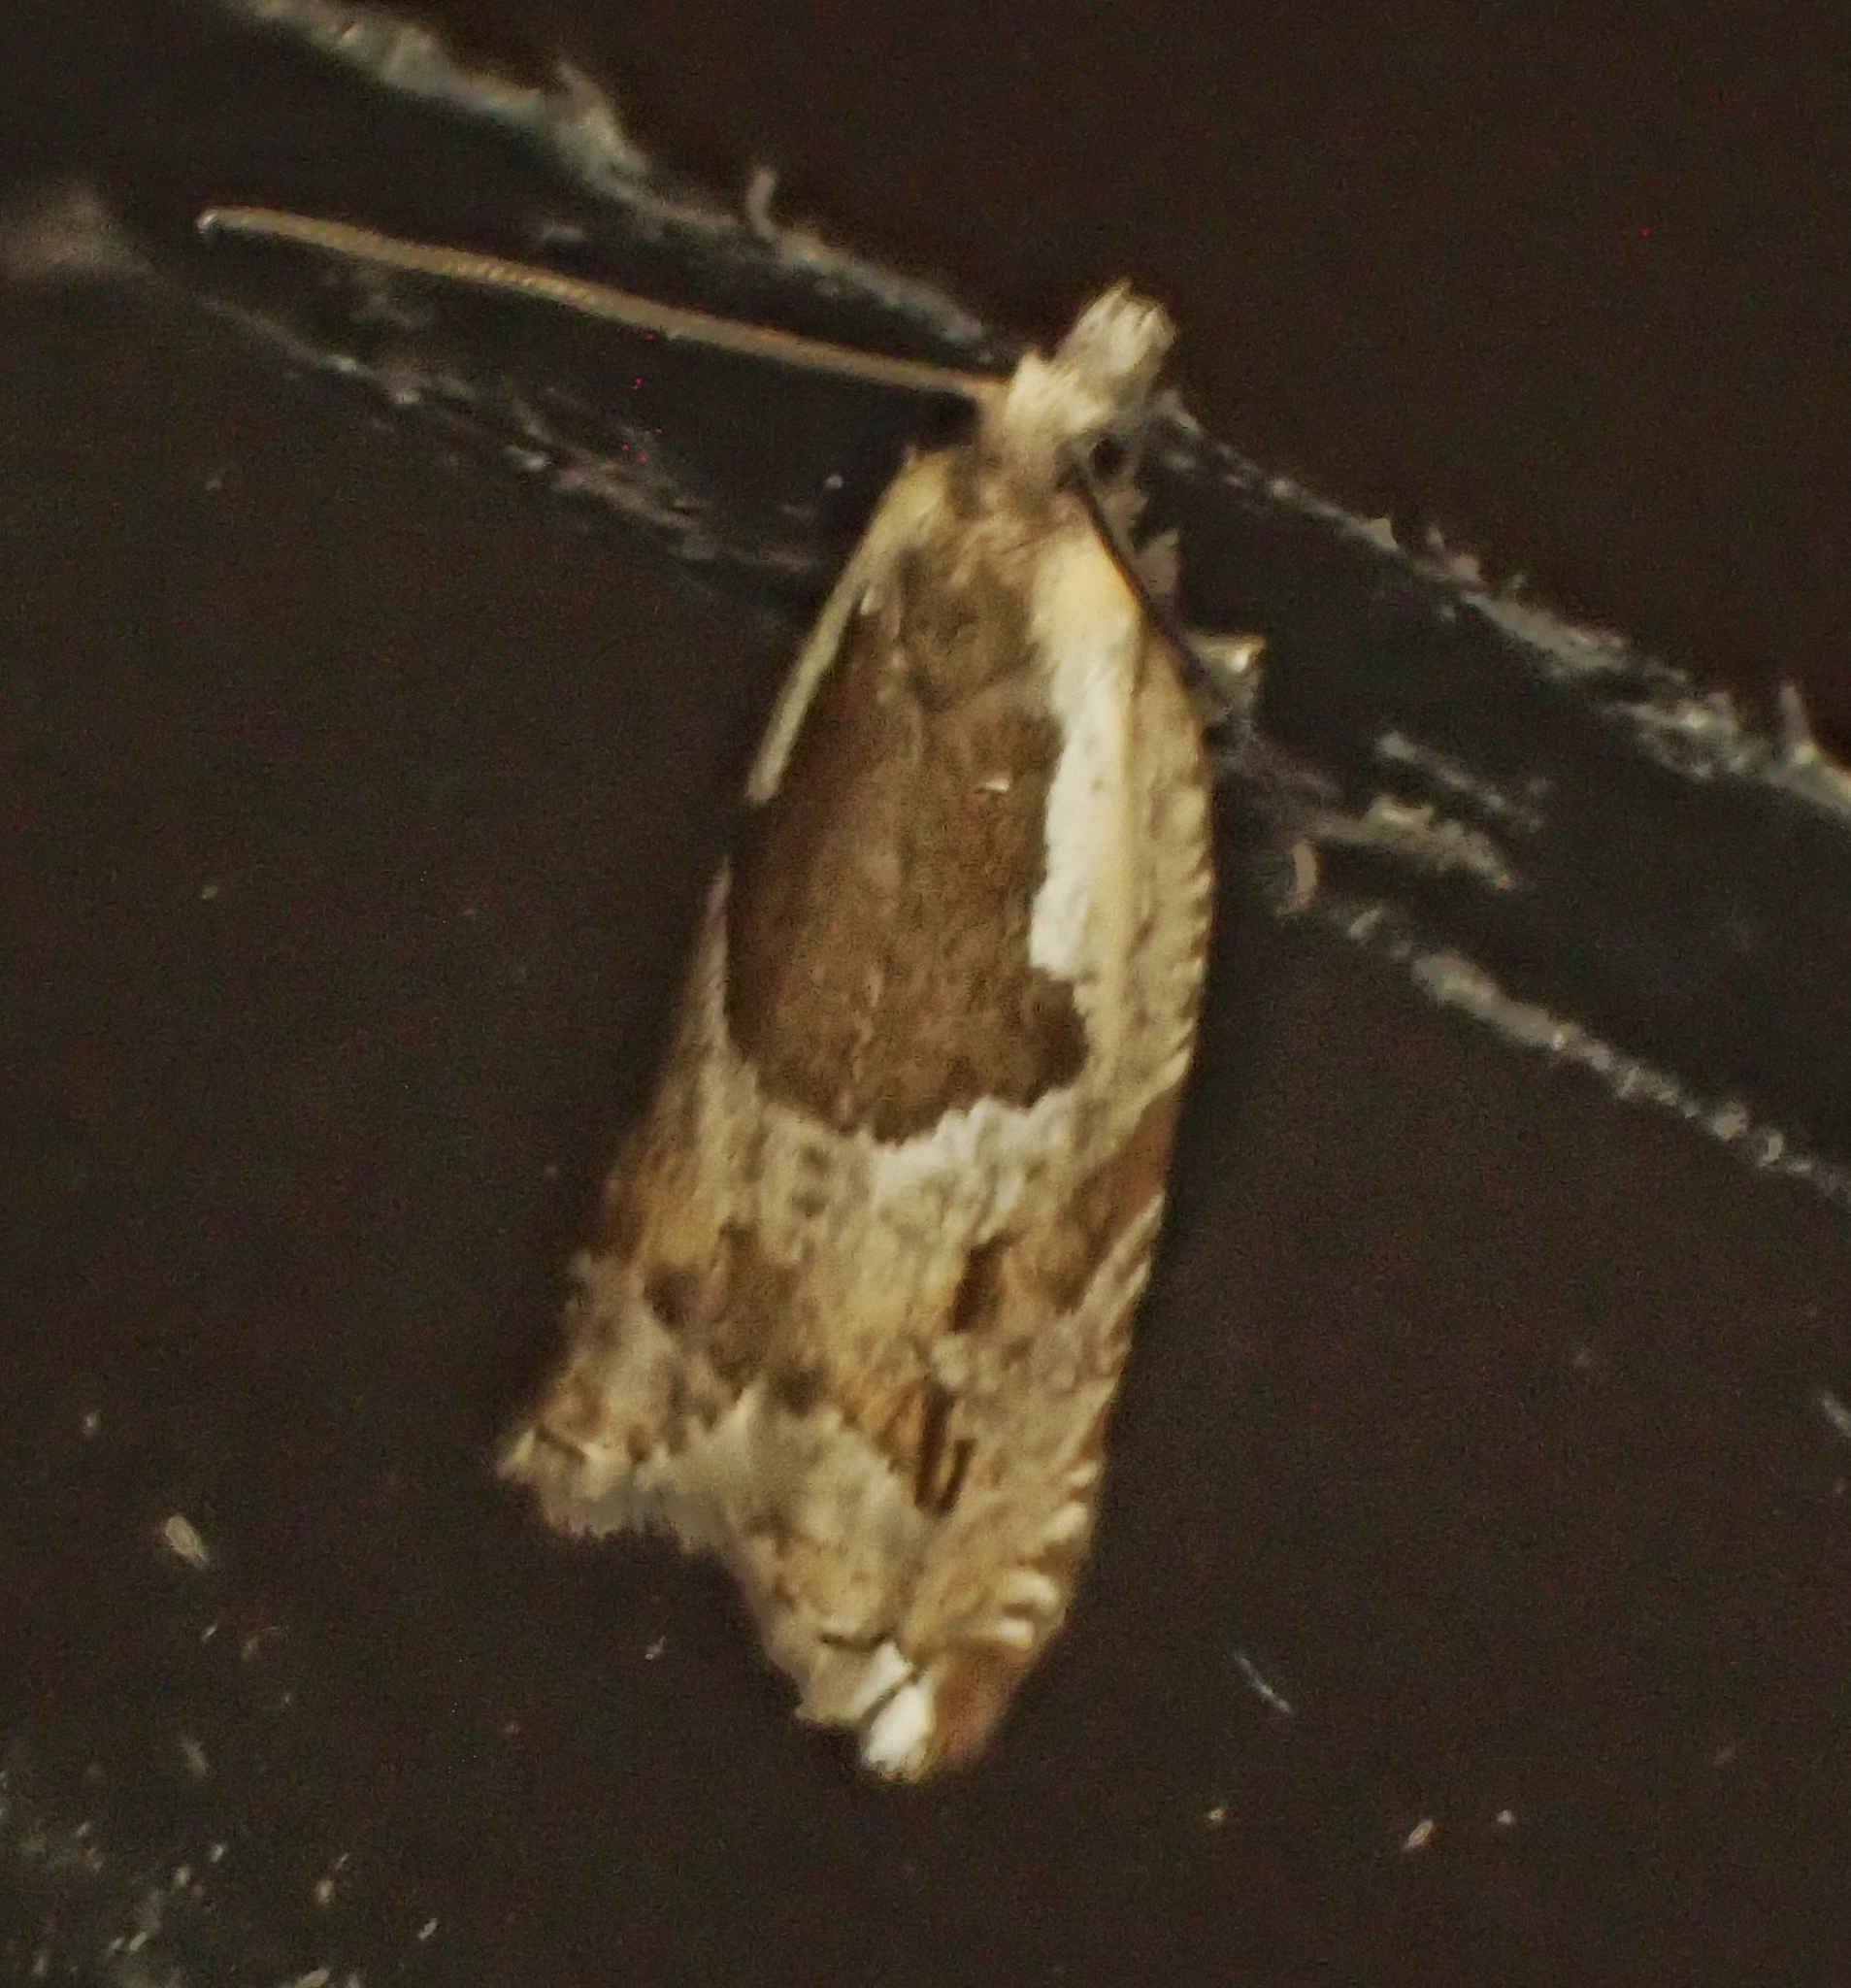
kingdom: Animalia
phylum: Arthropoda
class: Insecta
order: Lepidoptera
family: Tortricidae
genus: Ancylis
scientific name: Ancylis myrtillana
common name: Bilberry roller
